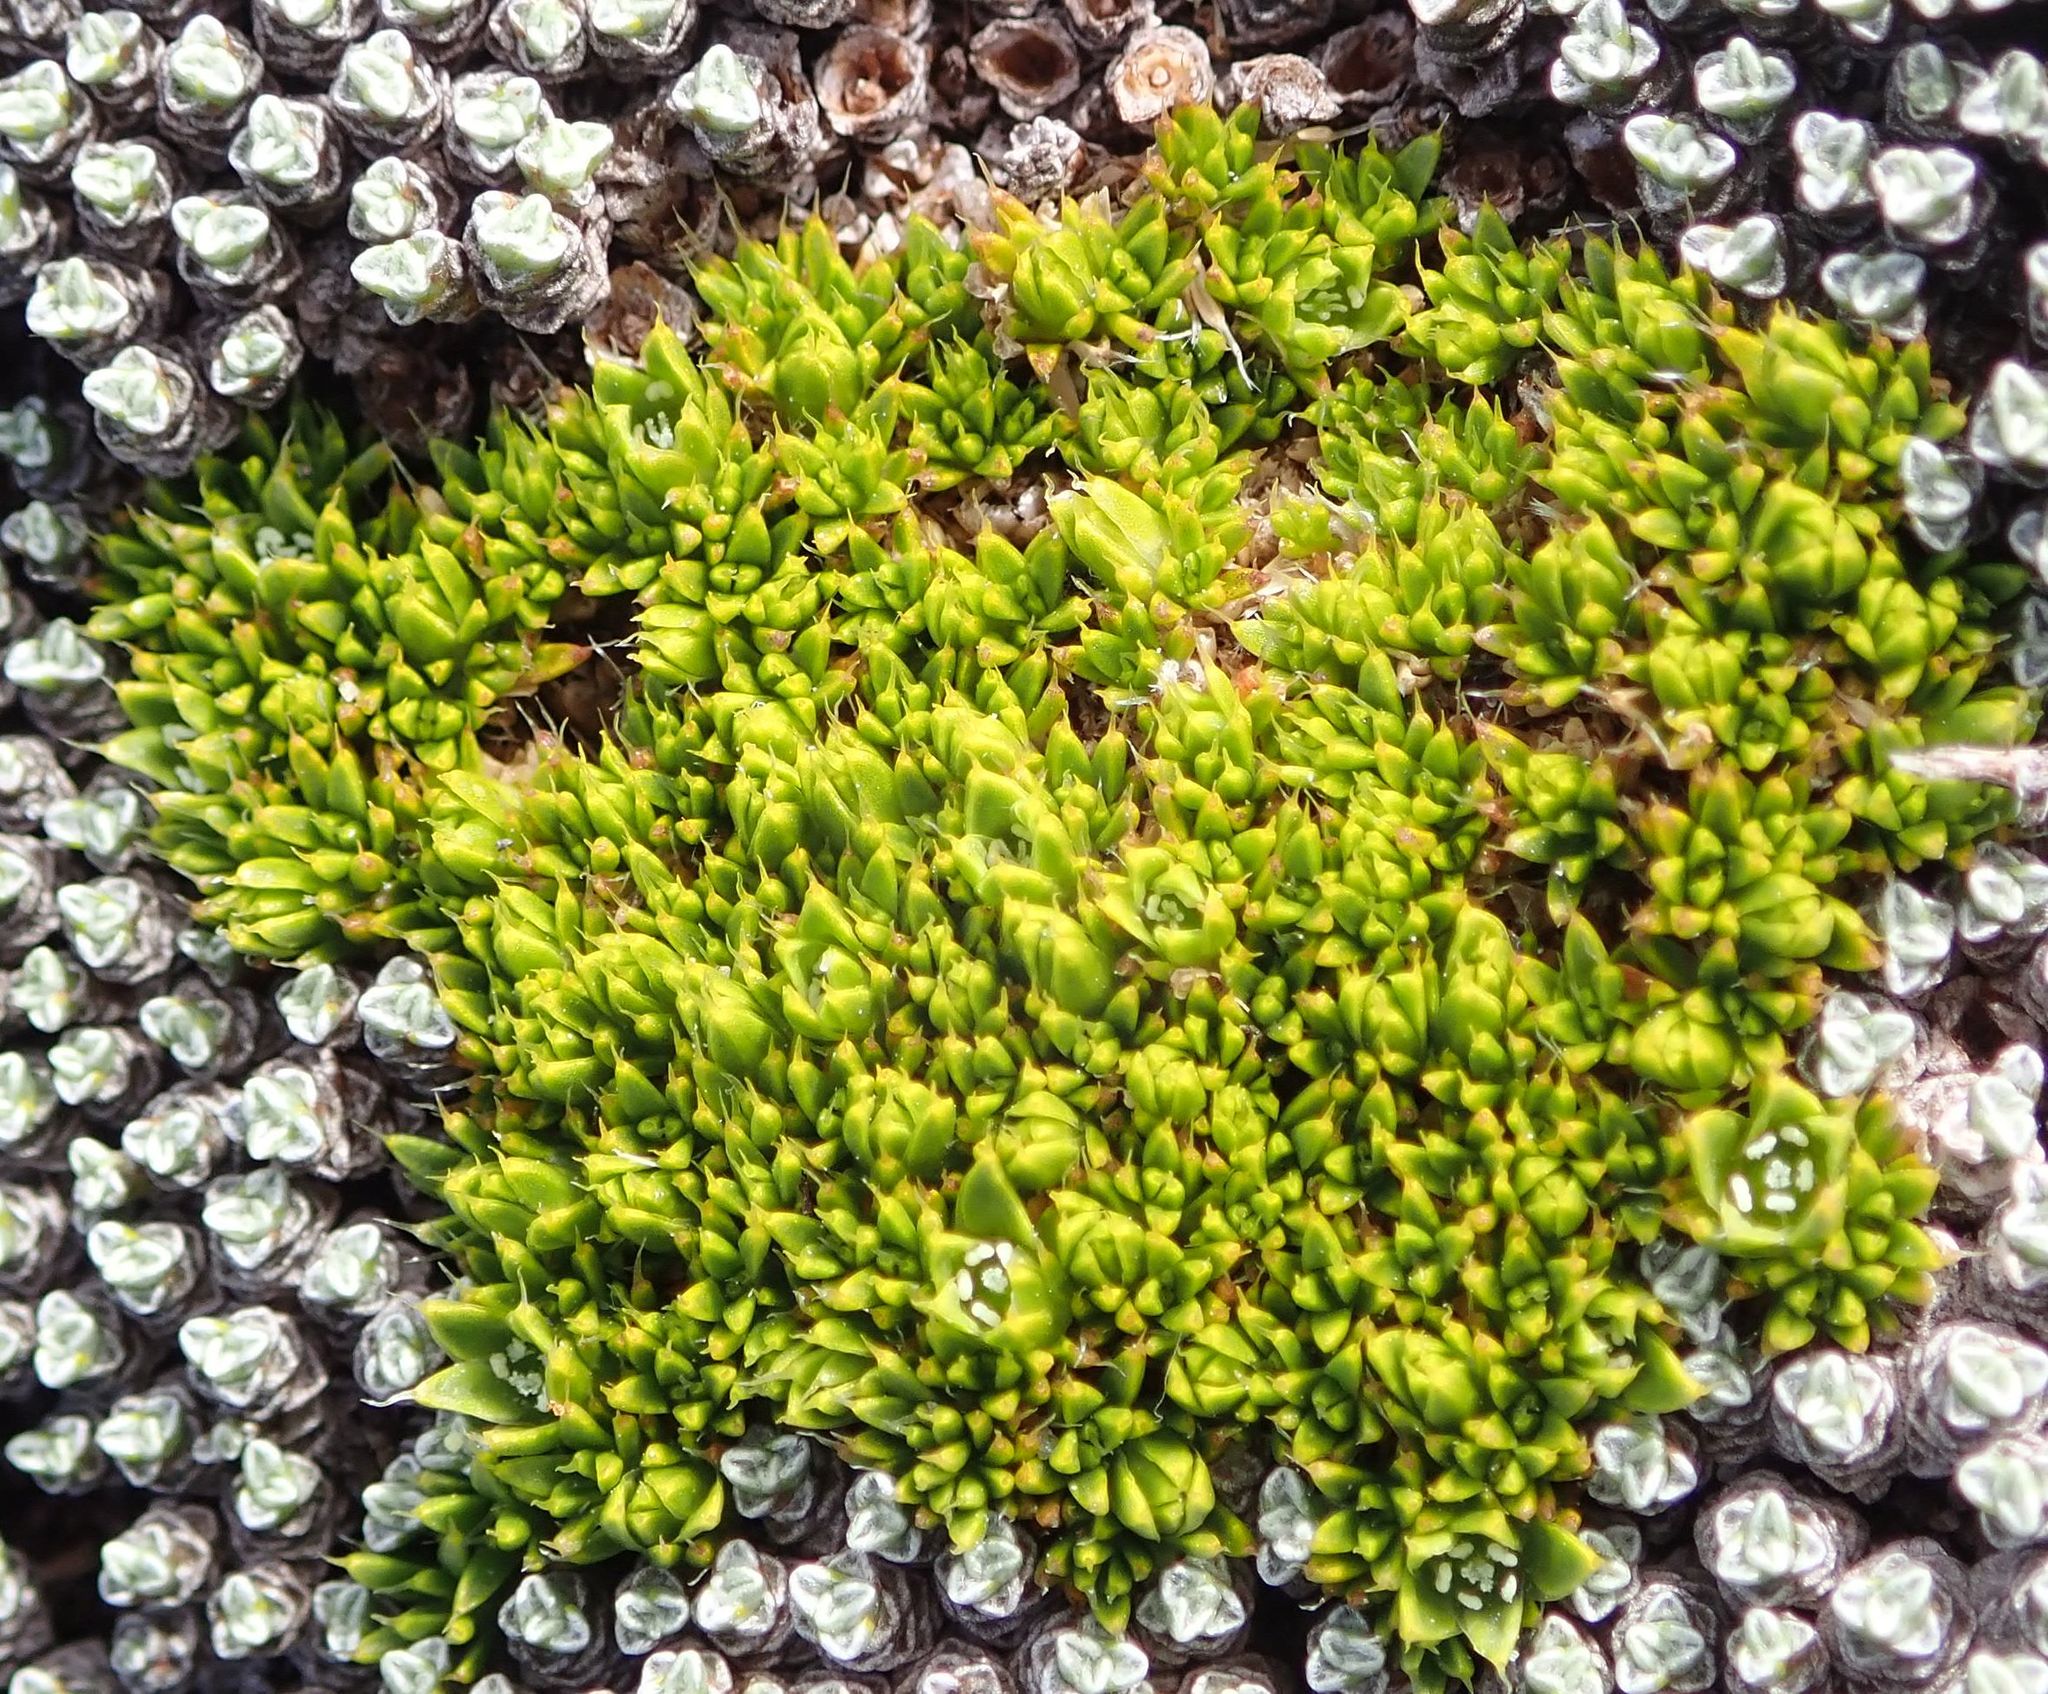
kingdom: Plantae
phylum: Tracheophyta
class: Magnoliopsida
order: Caryophyllales
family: Caryophyllaceae
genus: Colobanthus
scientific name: Colobanthus brevisepalus
